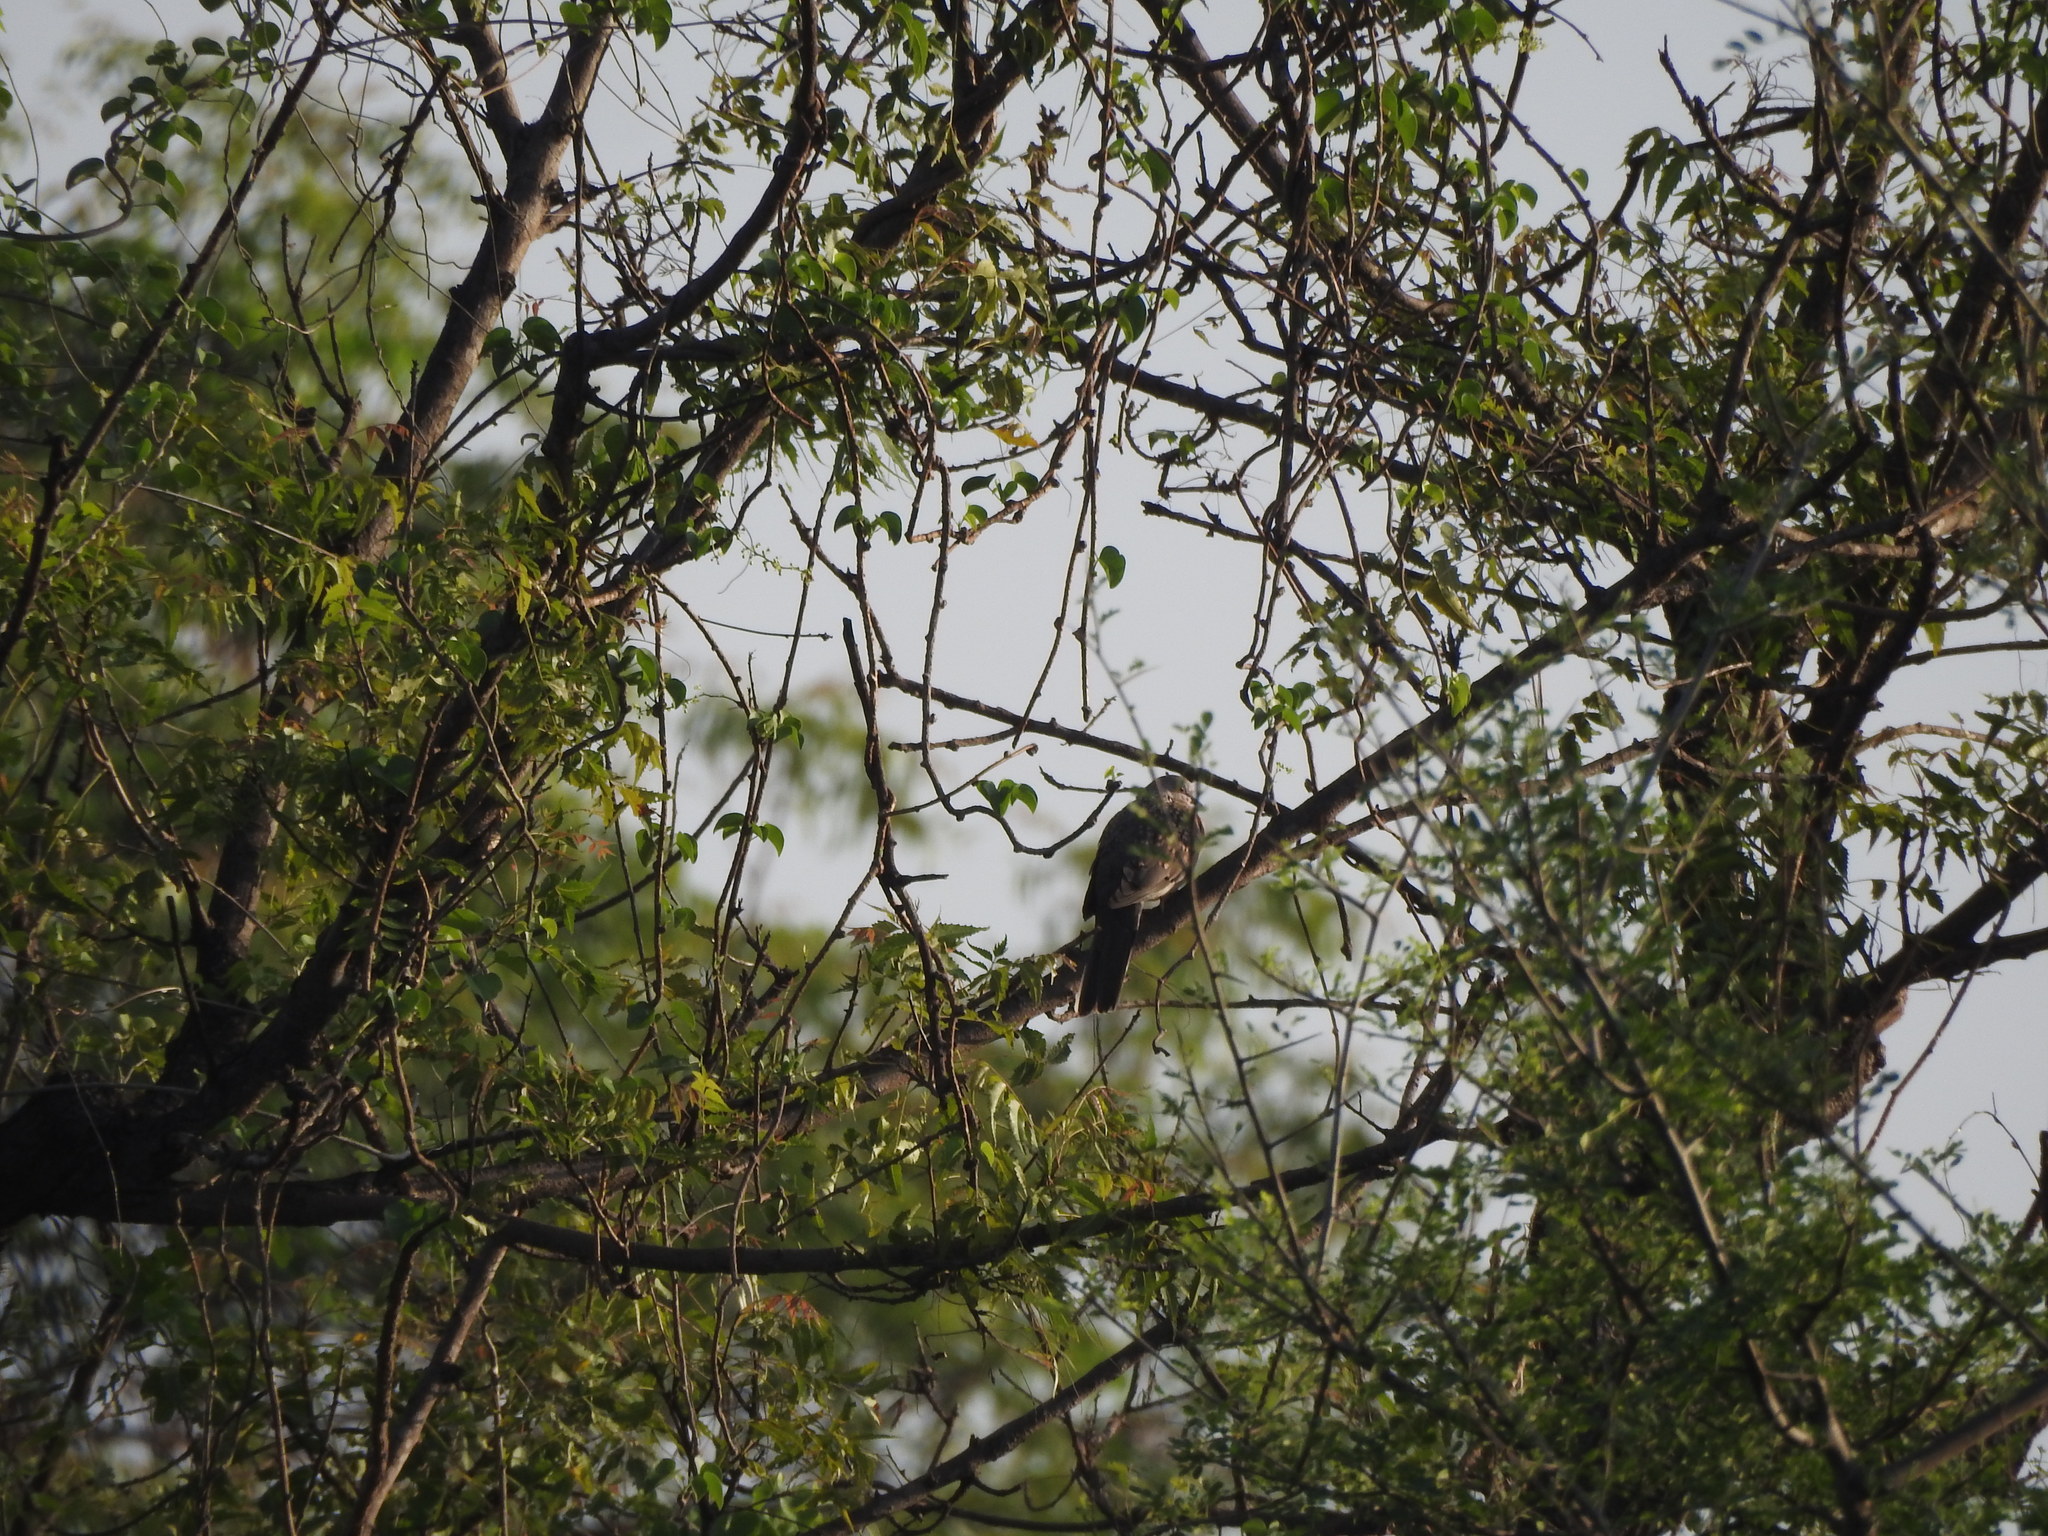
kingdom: Animalia
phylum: Chordata
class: Aves
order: Columbiformes
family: Columbidae
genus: Spilopelia
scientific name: Spilopelia chinensis
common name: Spotted dove
